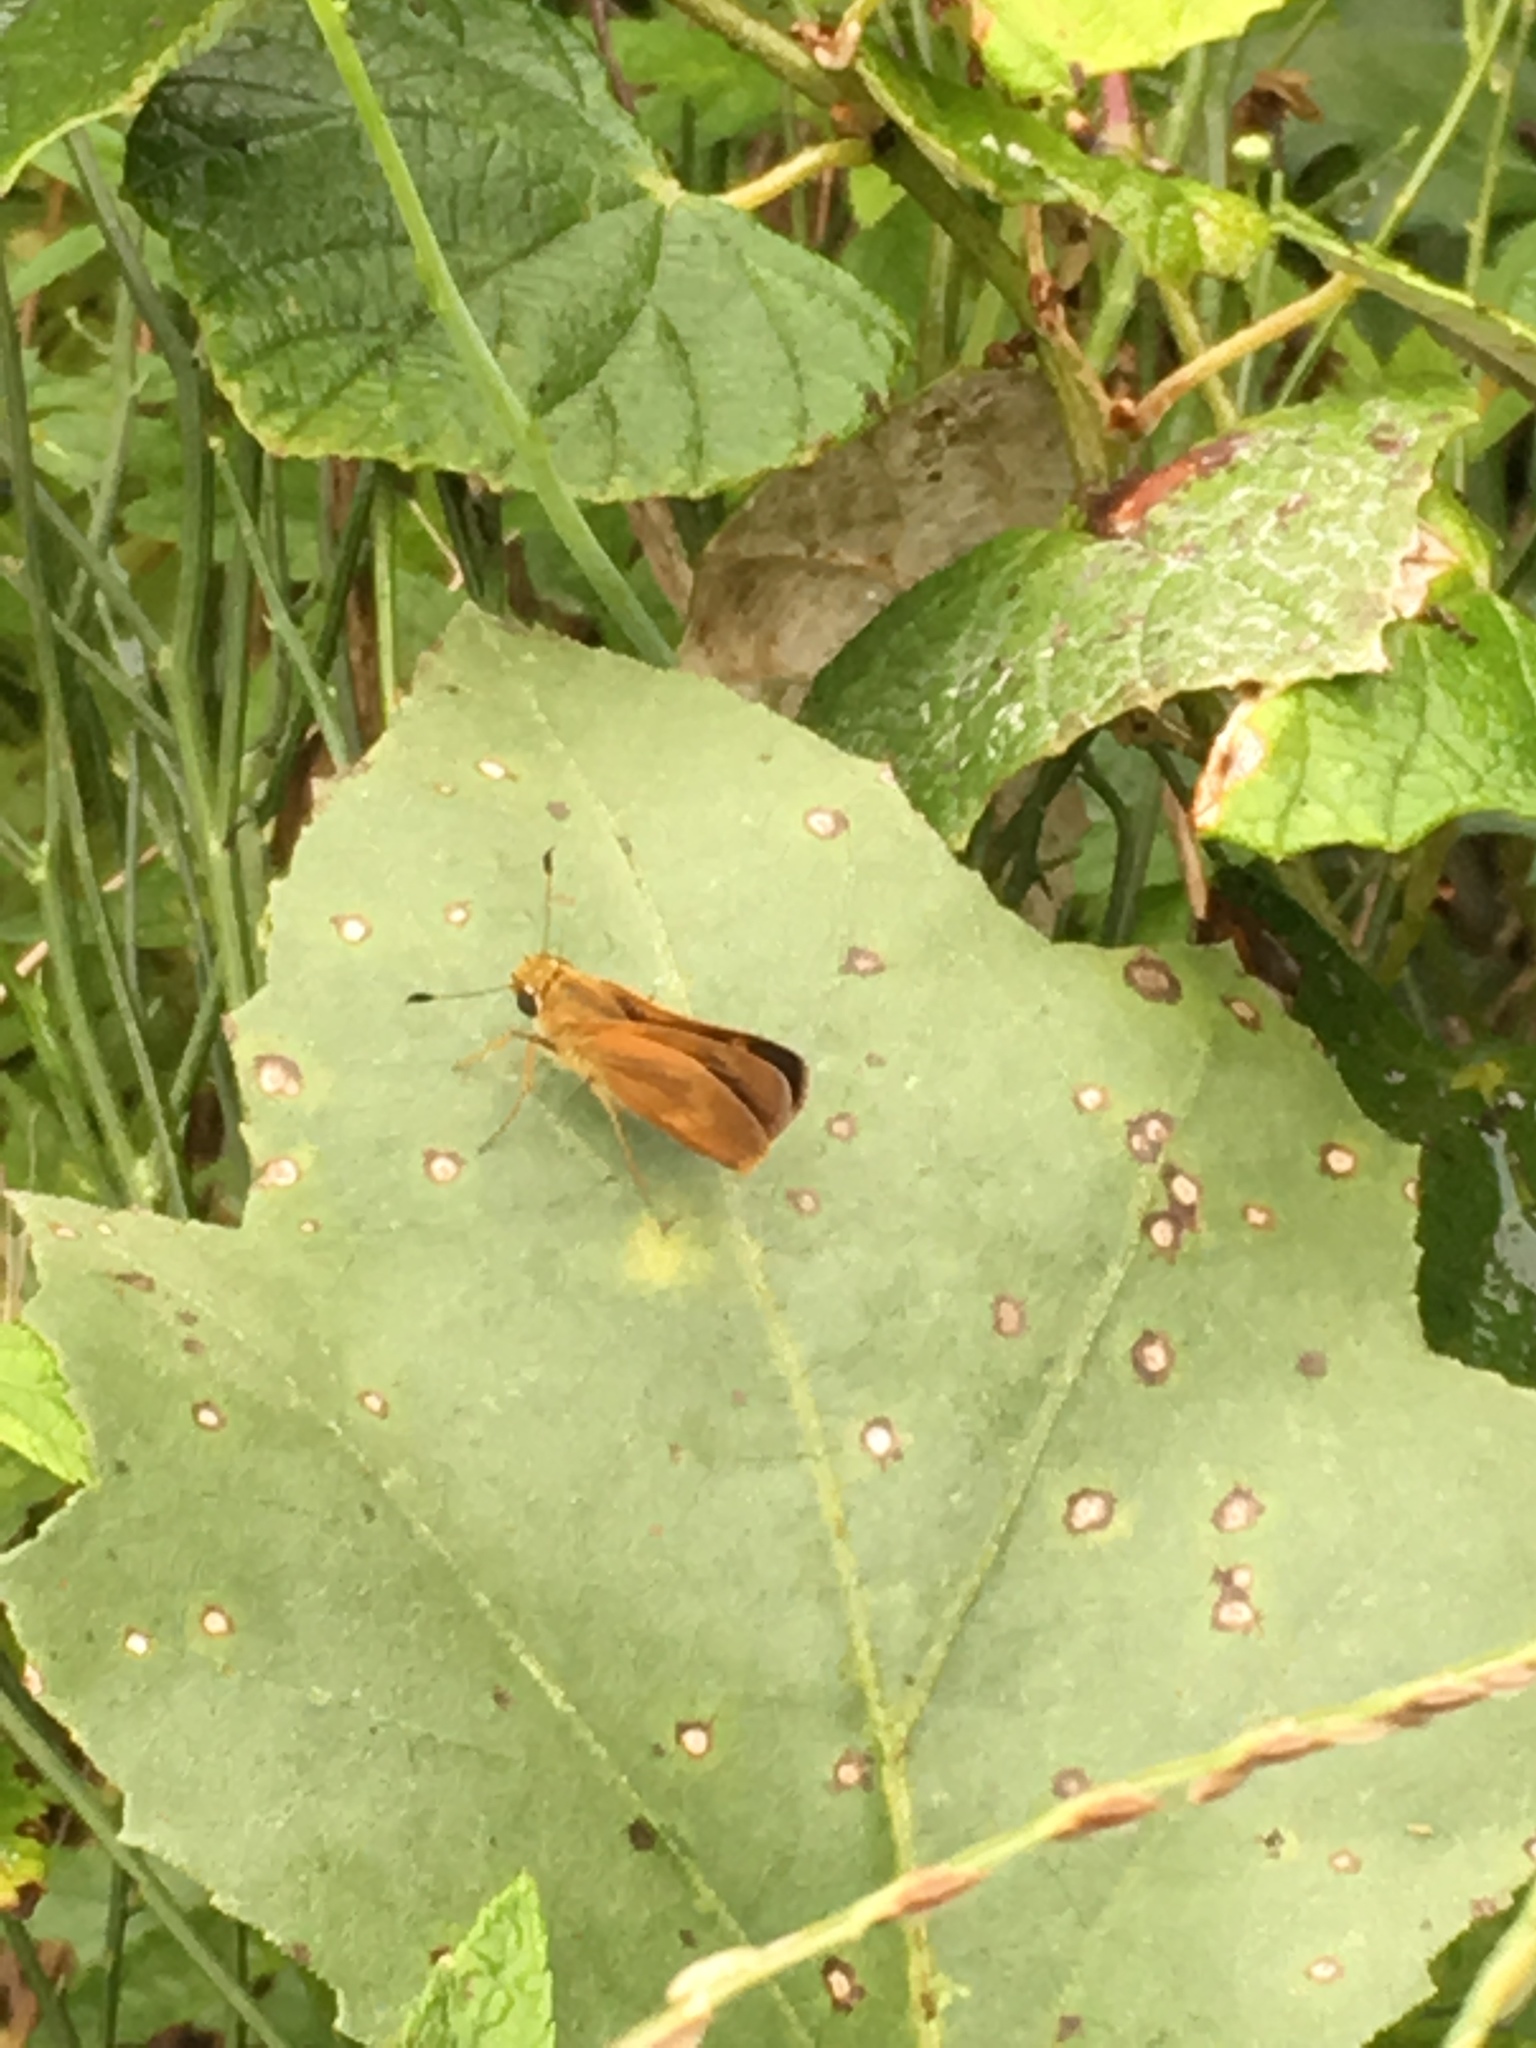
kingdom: Animalia
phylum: Arthropoda
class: Insecta
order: Lepidoptera
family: Hesperiidae
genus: Polites
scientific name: Polites otho
